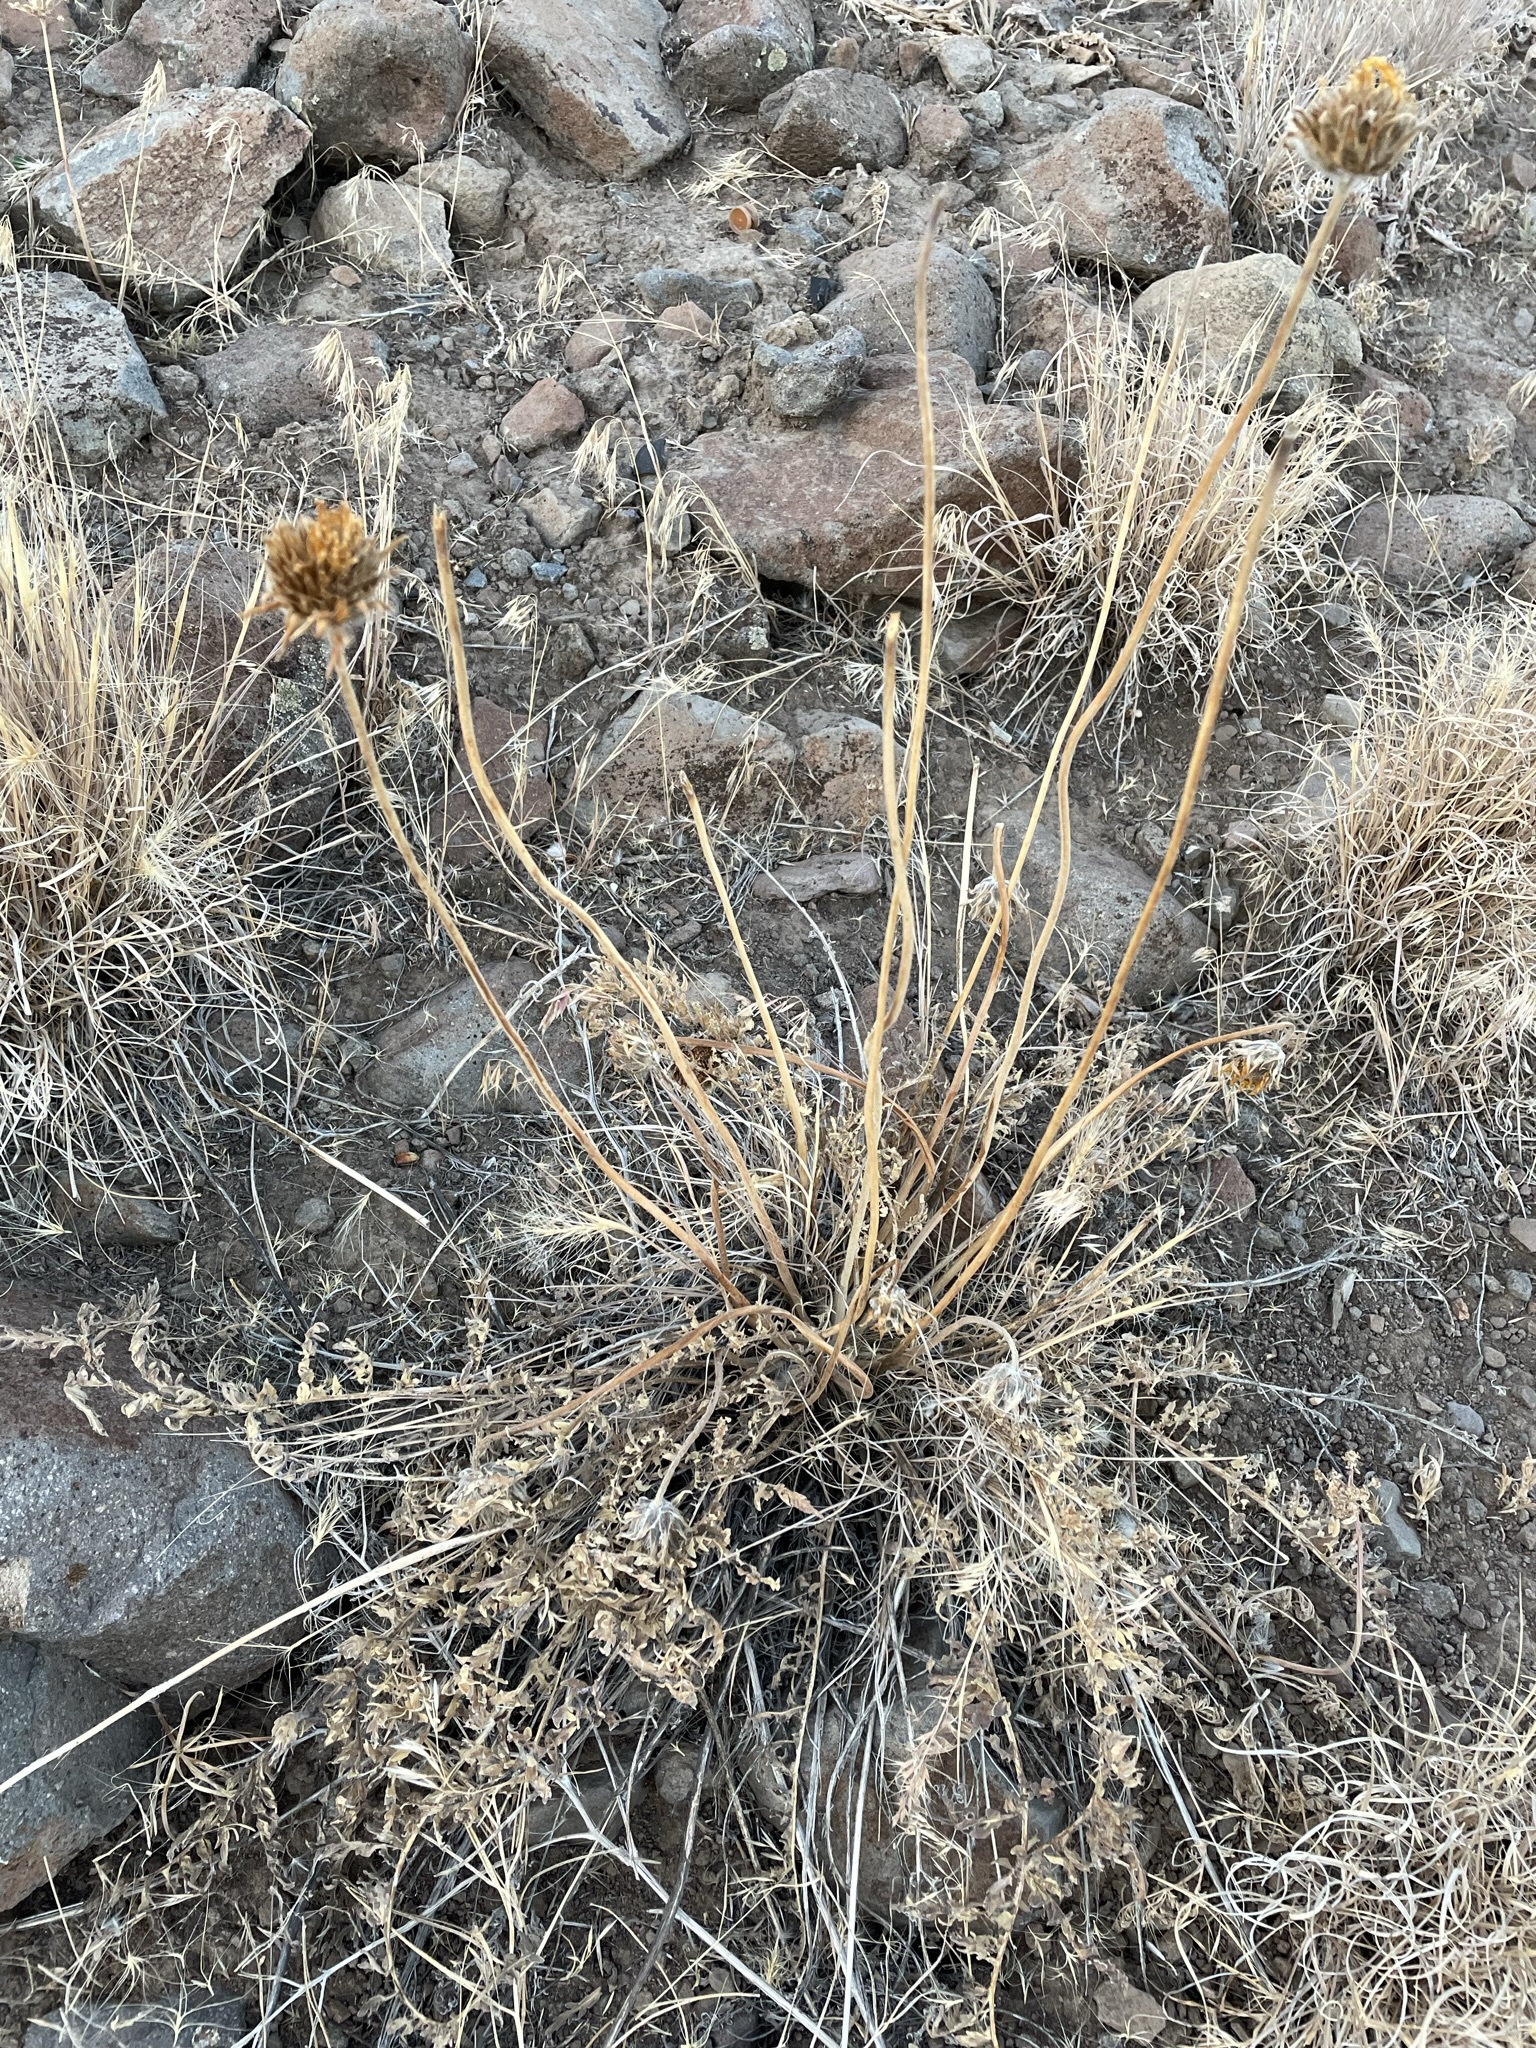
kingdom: Plantae
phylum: Tracheophyta
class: Magnoliopsida
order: Asterales
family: Asteraceae
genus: Balsamorhiza
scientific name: Balsamorhiza hookeri
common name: Hooker's balsamroot
